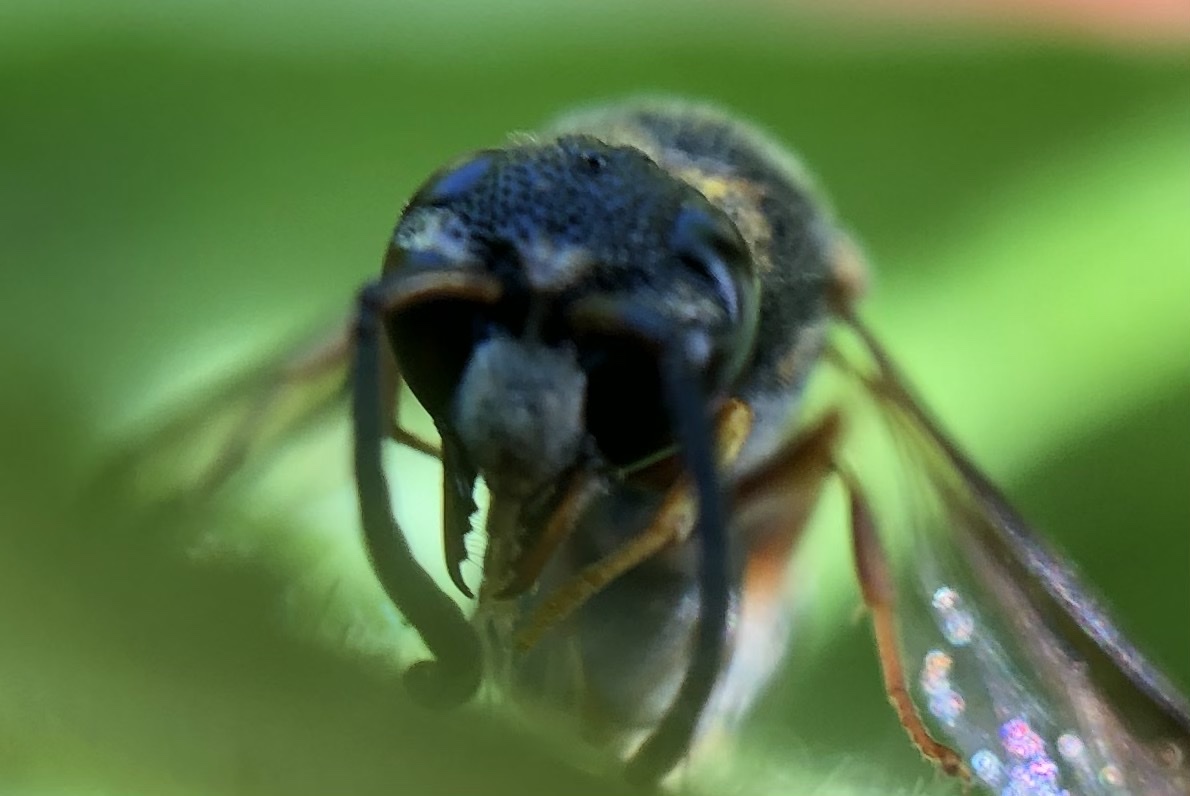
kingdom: Animalia
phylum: Arthropoda
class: Insecta
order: Hymenoptera
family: Eumenidae
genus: Parancistrocerus
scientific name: Parancistrocerus fulvipes
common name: Potter wasp
